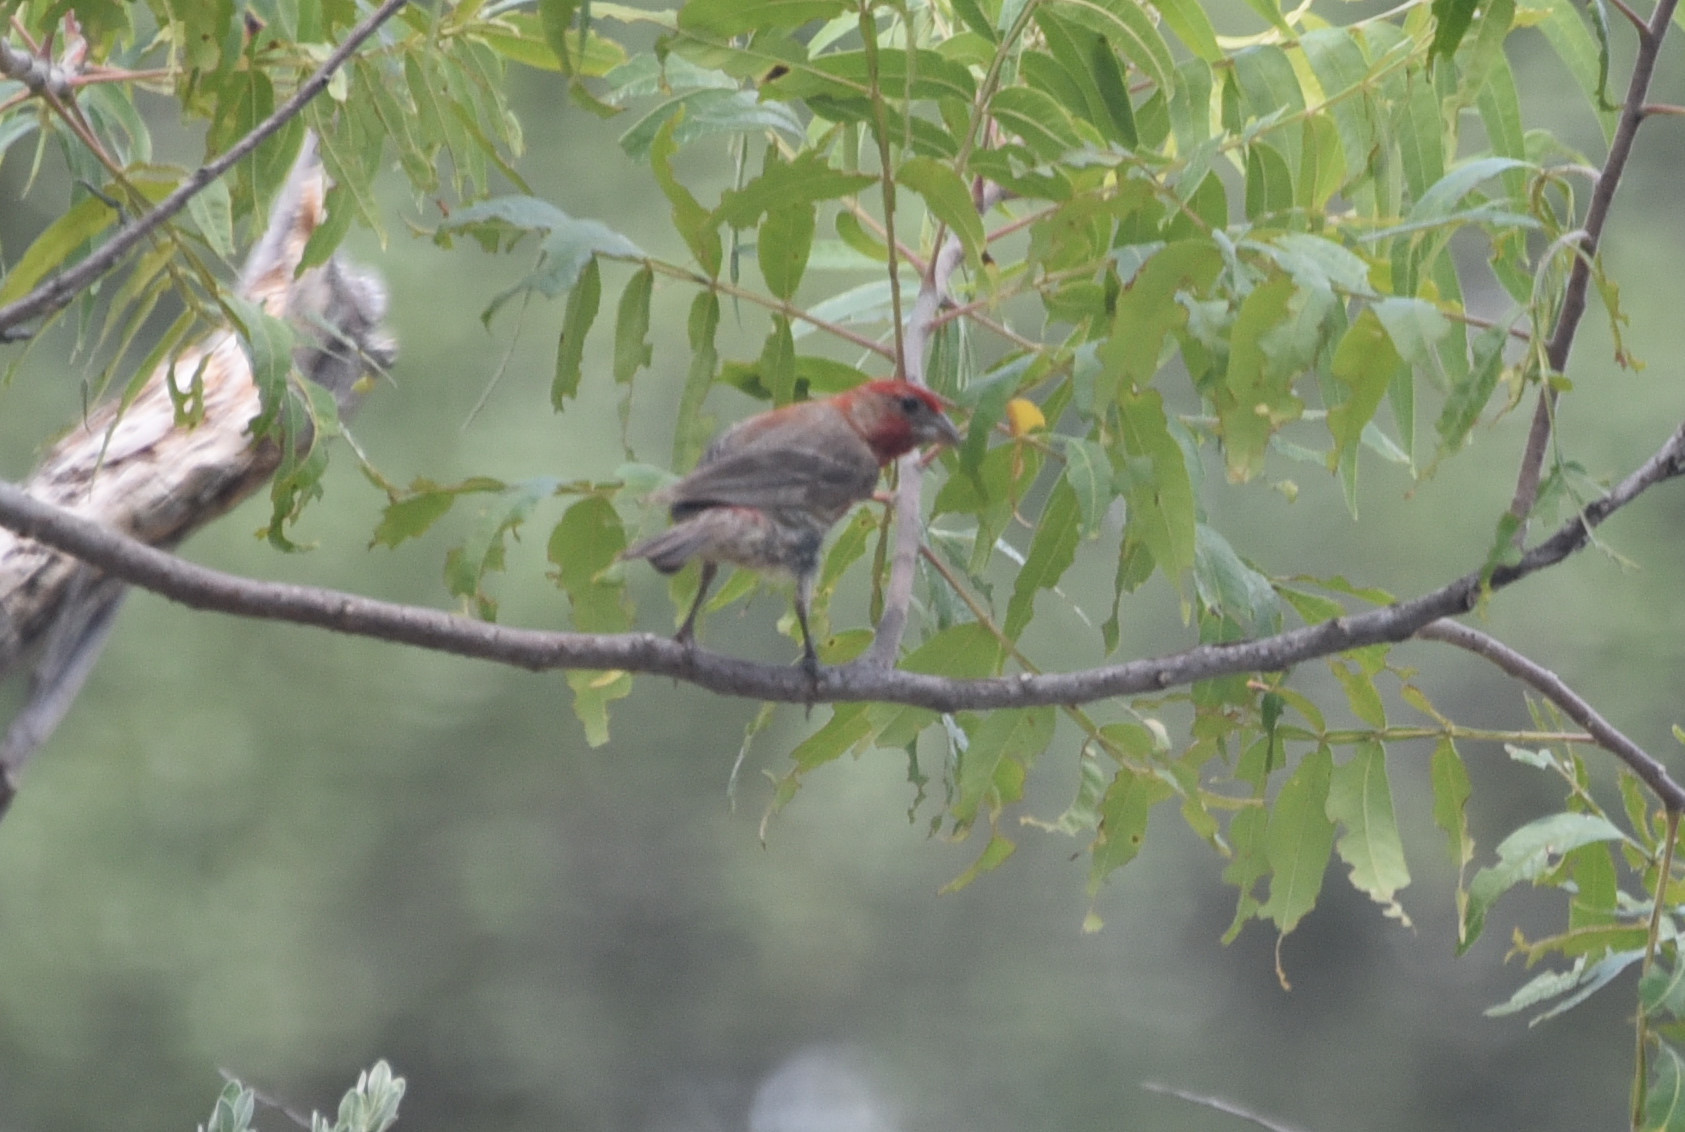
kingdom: Animalia
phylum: Chordata
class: Aves
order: Passeriformes
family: Fringillidae
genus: Haemorhous
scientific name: Haemorhous mexicanus
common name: House finch
